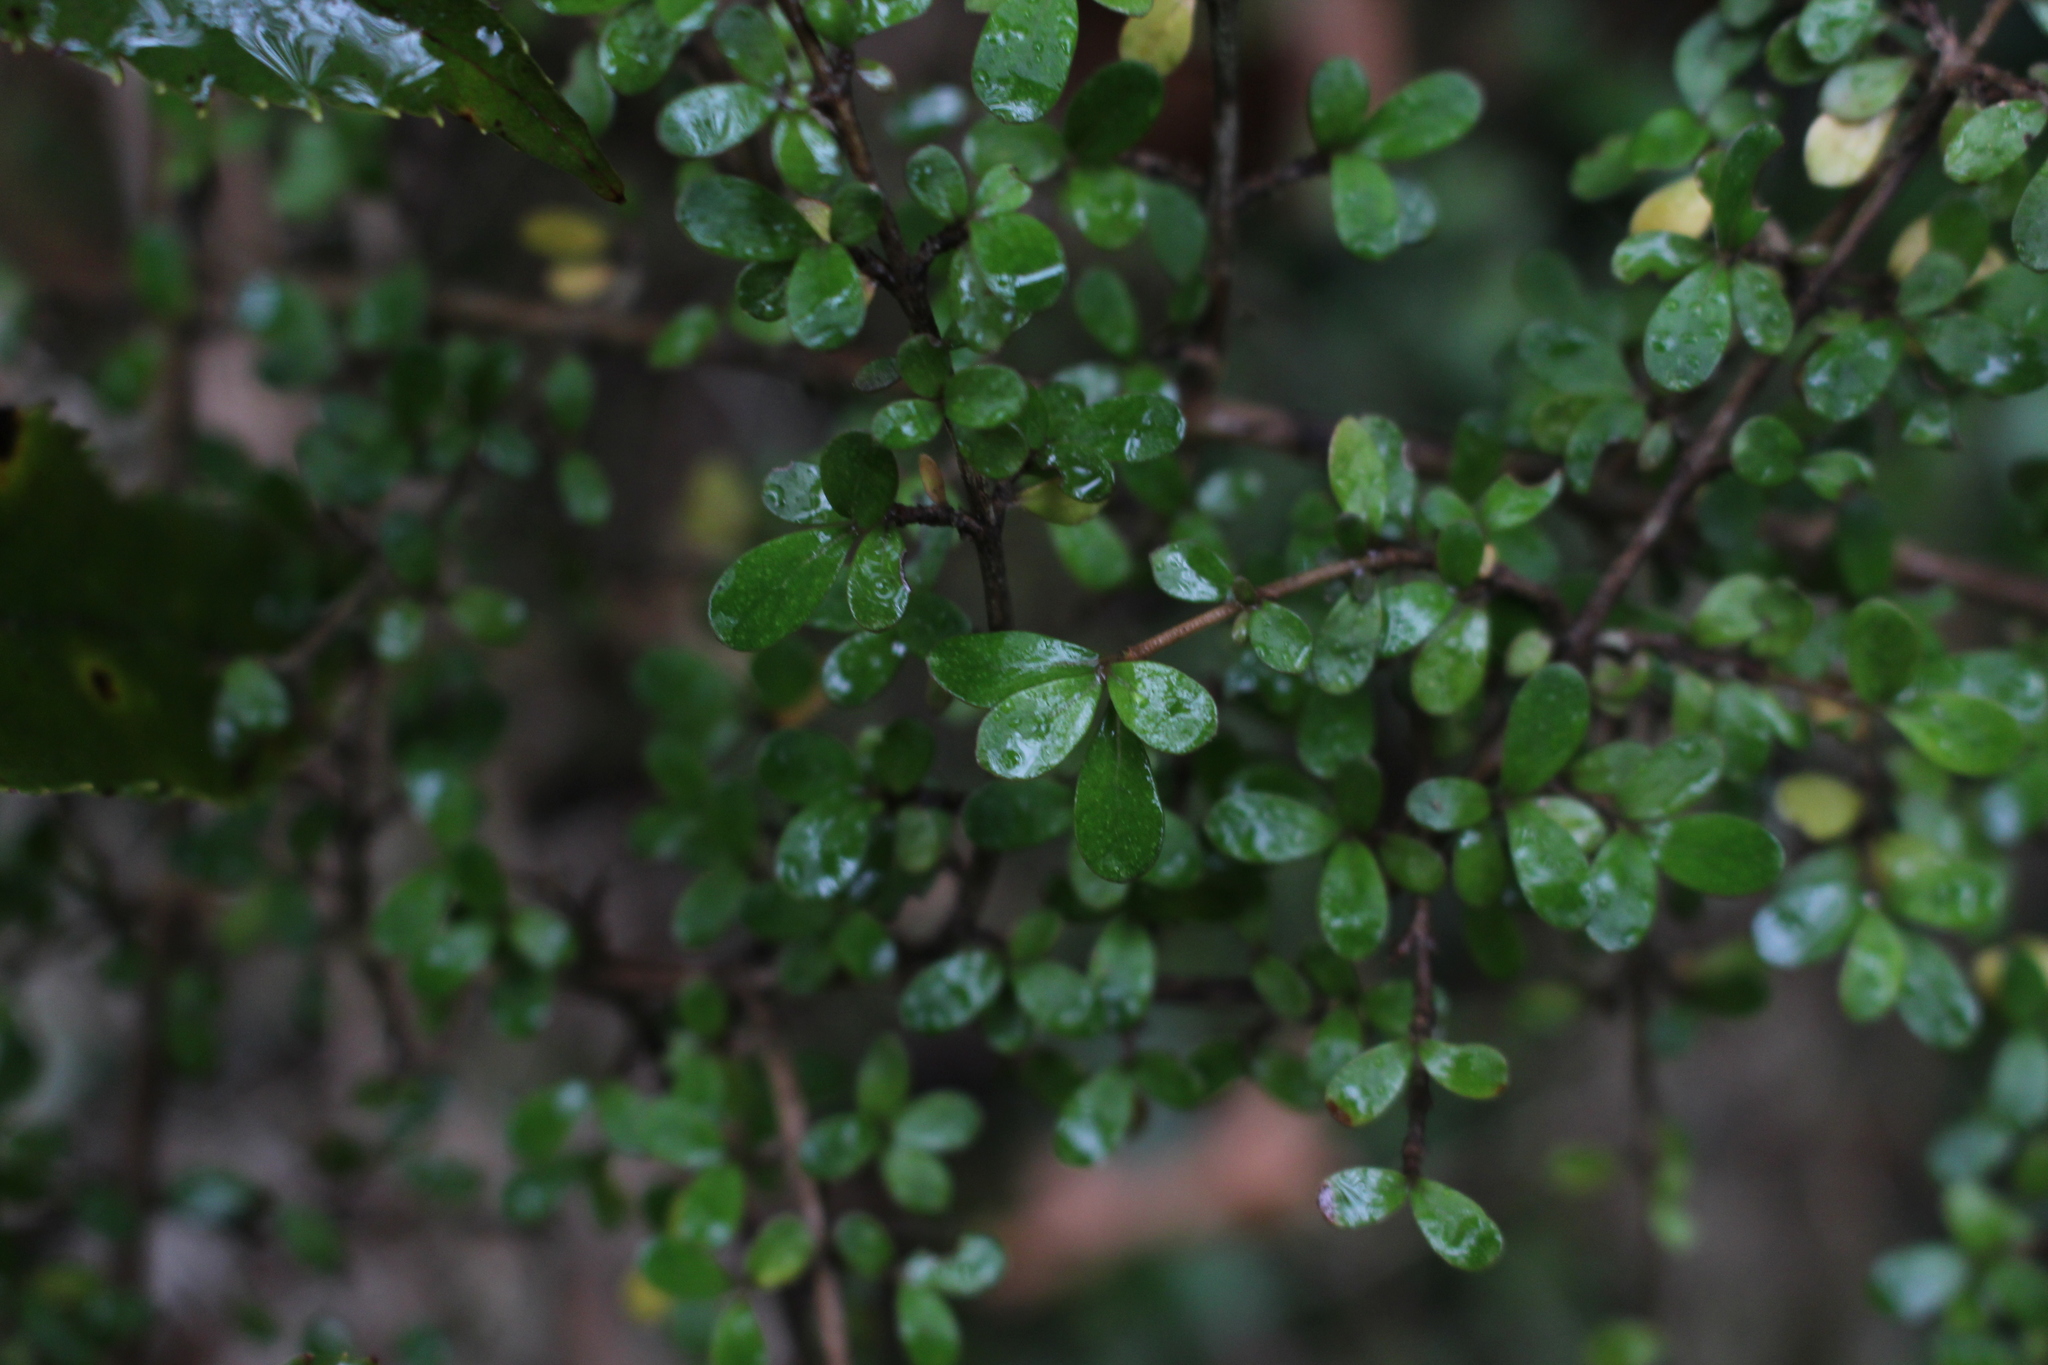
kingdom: Plantae
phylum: Tracheophyta
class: Magnoliopsida
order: Gentianales
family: Rubiaceae
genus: Coprosma
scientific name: Coprosma dumosa
